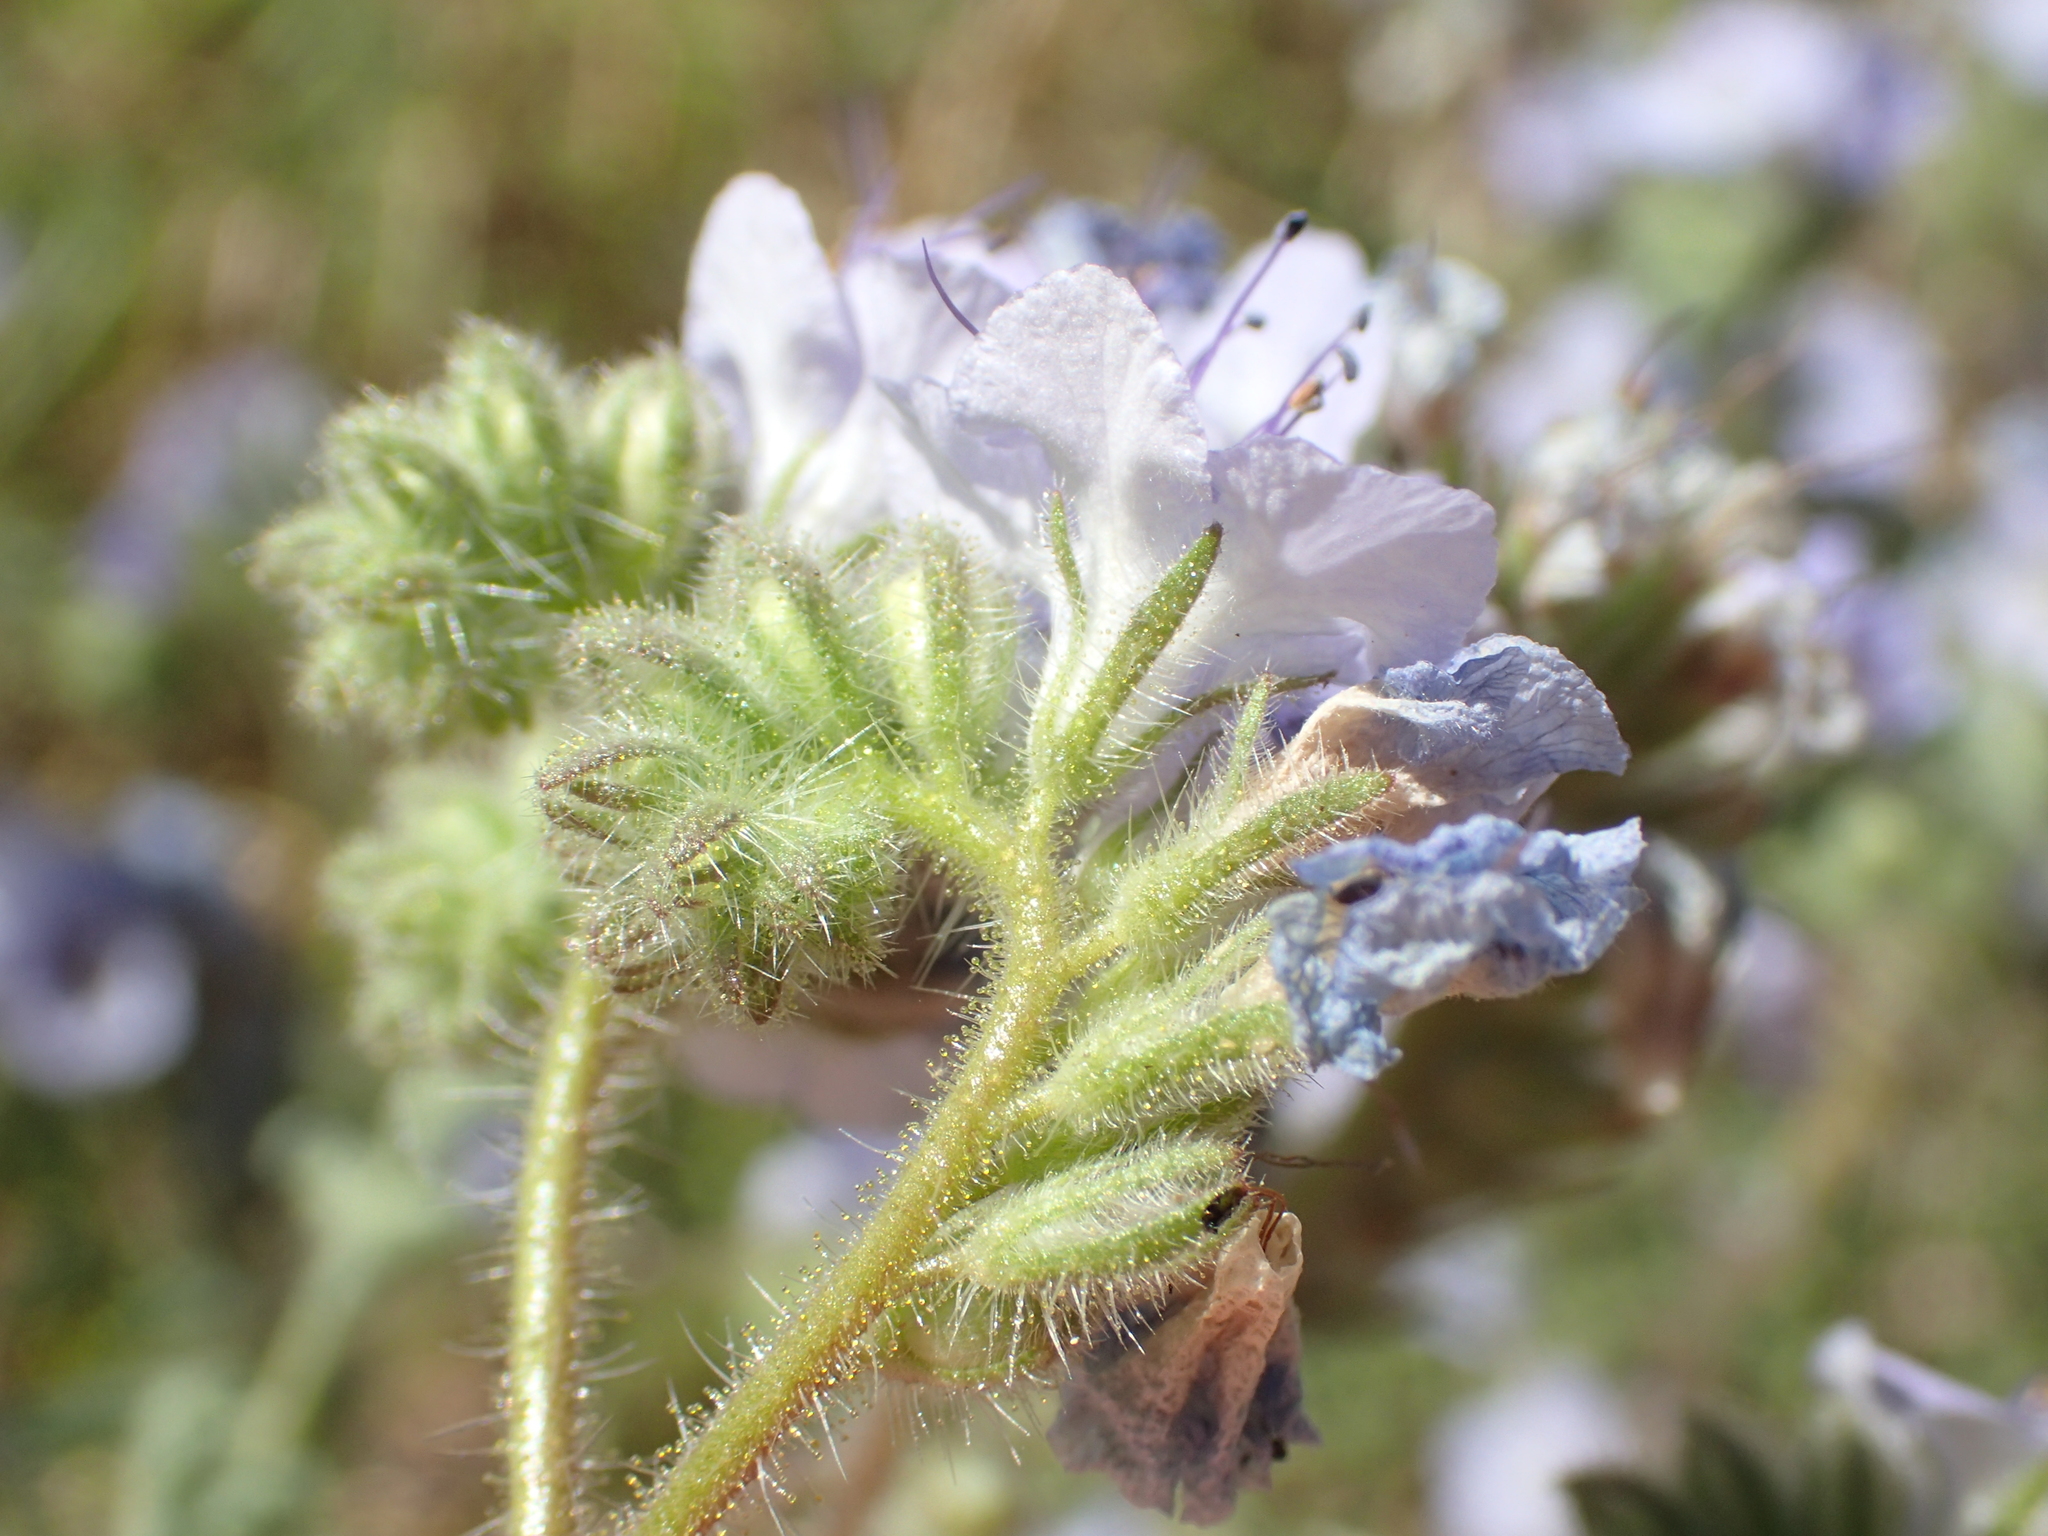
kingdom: Plantae
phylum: Tracheophyta
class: Magnoliopsida
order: Boraginales
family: Hydrophyllaceae
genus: Phacelia
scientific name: Phacelia distans
